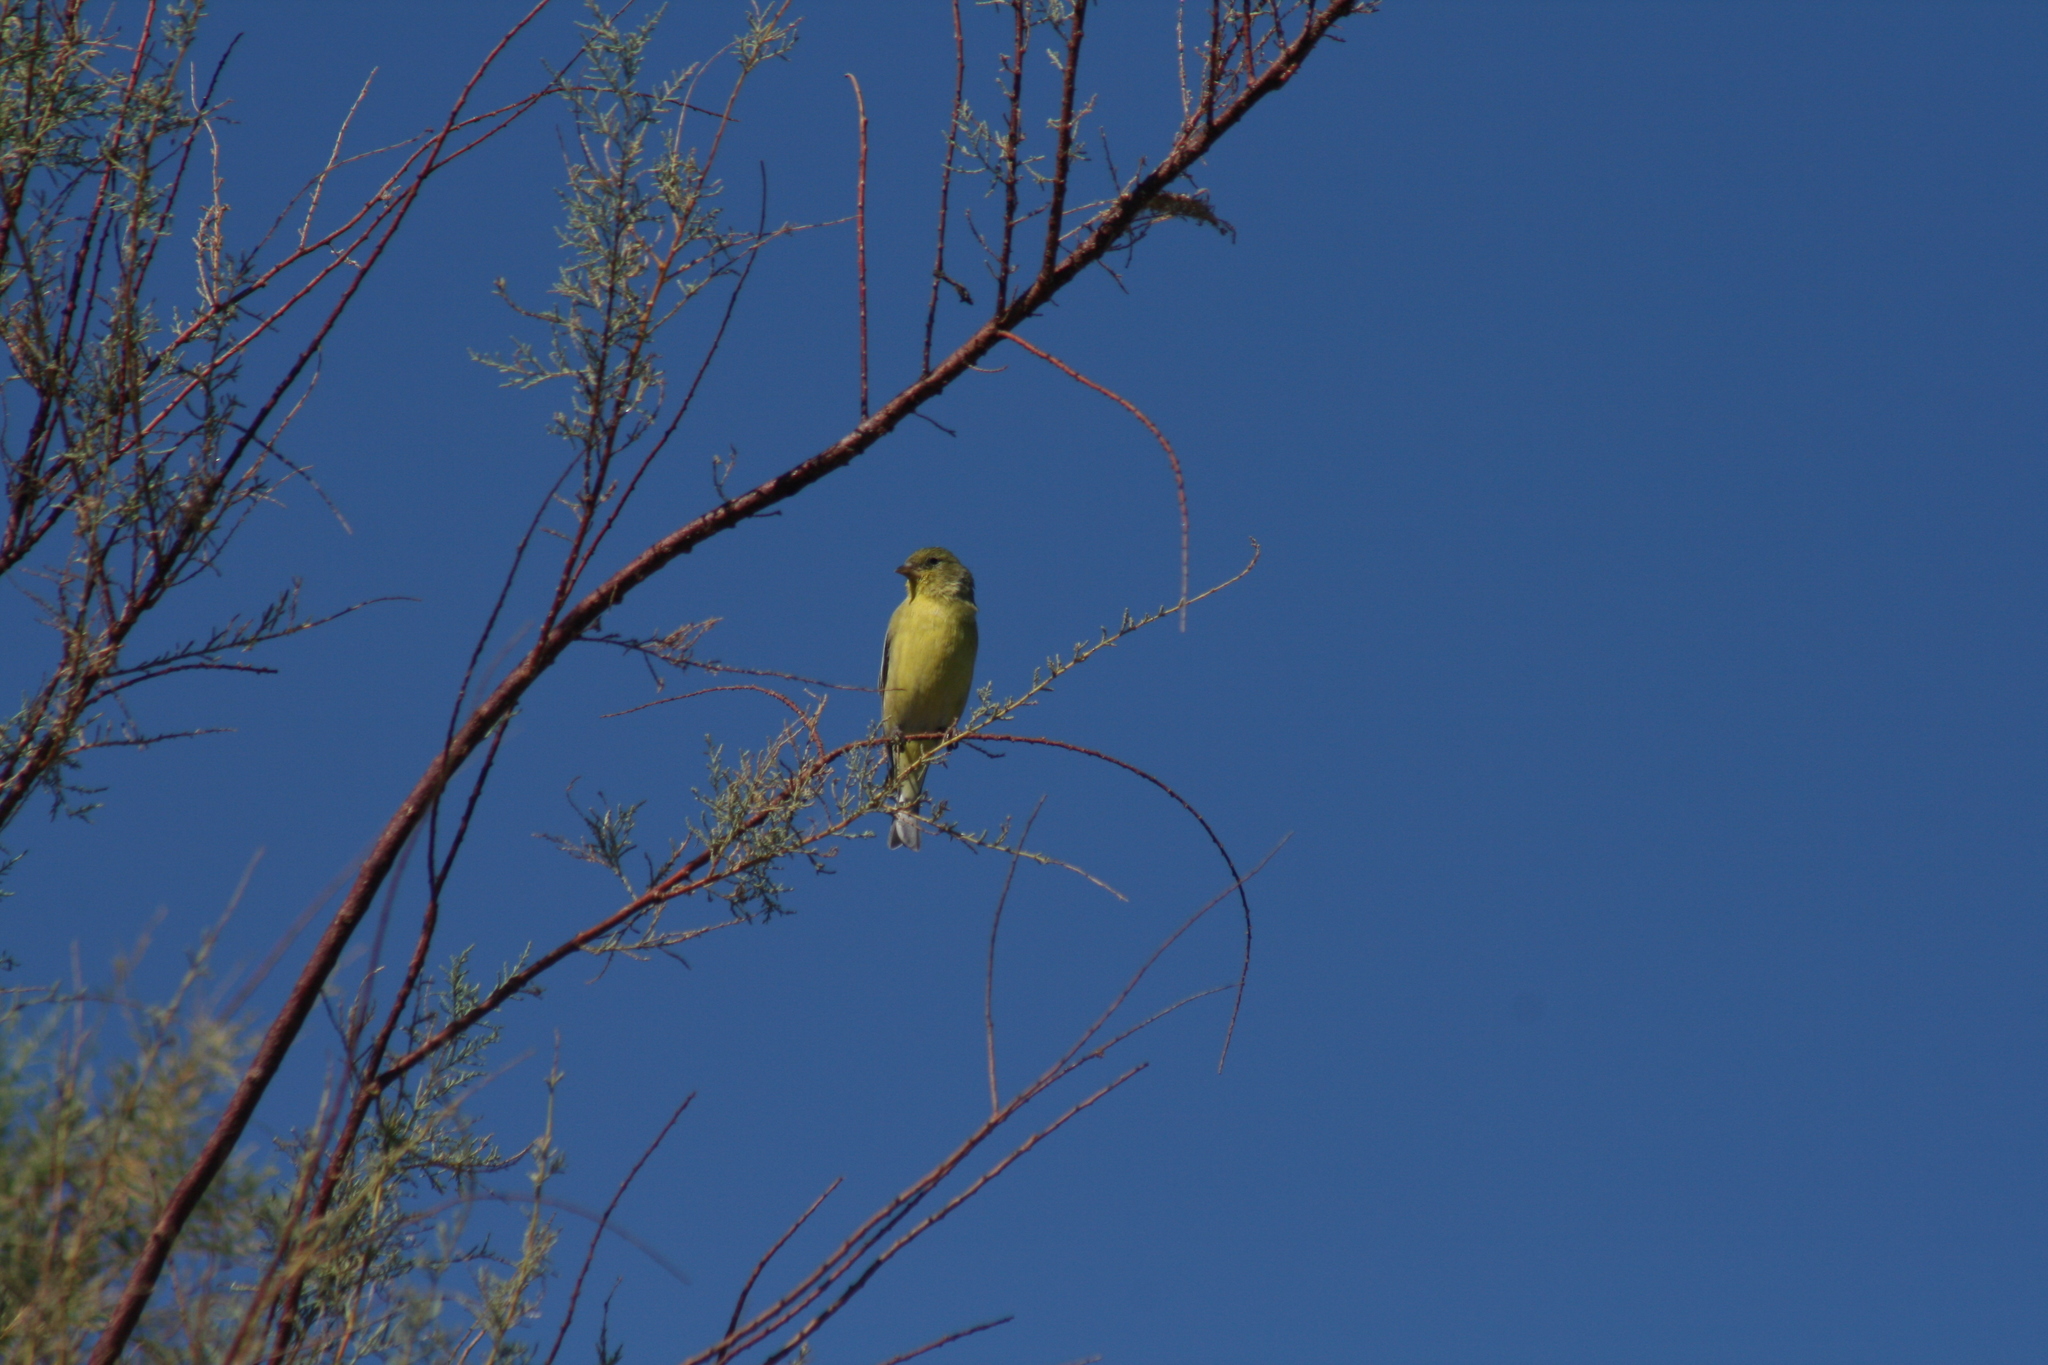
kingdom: Animalia
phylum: Chordata
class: Aves
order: Passeriformes
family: Fringillidae
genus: Spinus
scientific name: Spinus psaltria
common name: Lesser goldfinch
